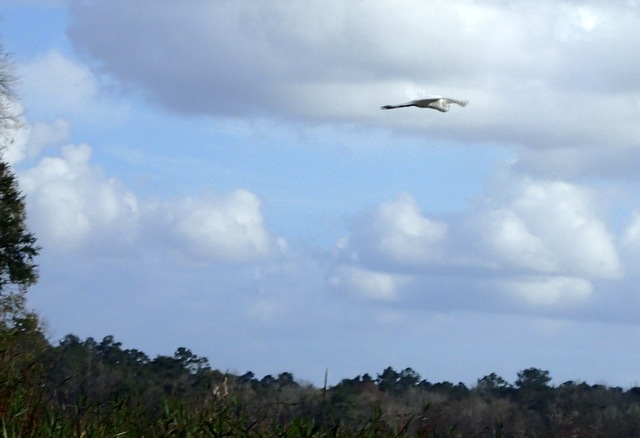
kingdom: Animalia
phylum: Chordata
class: Aves
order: Pelecaniformes
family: Ardeidae
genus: Ardea
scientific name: Ardea herodias
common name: Great blue heron
